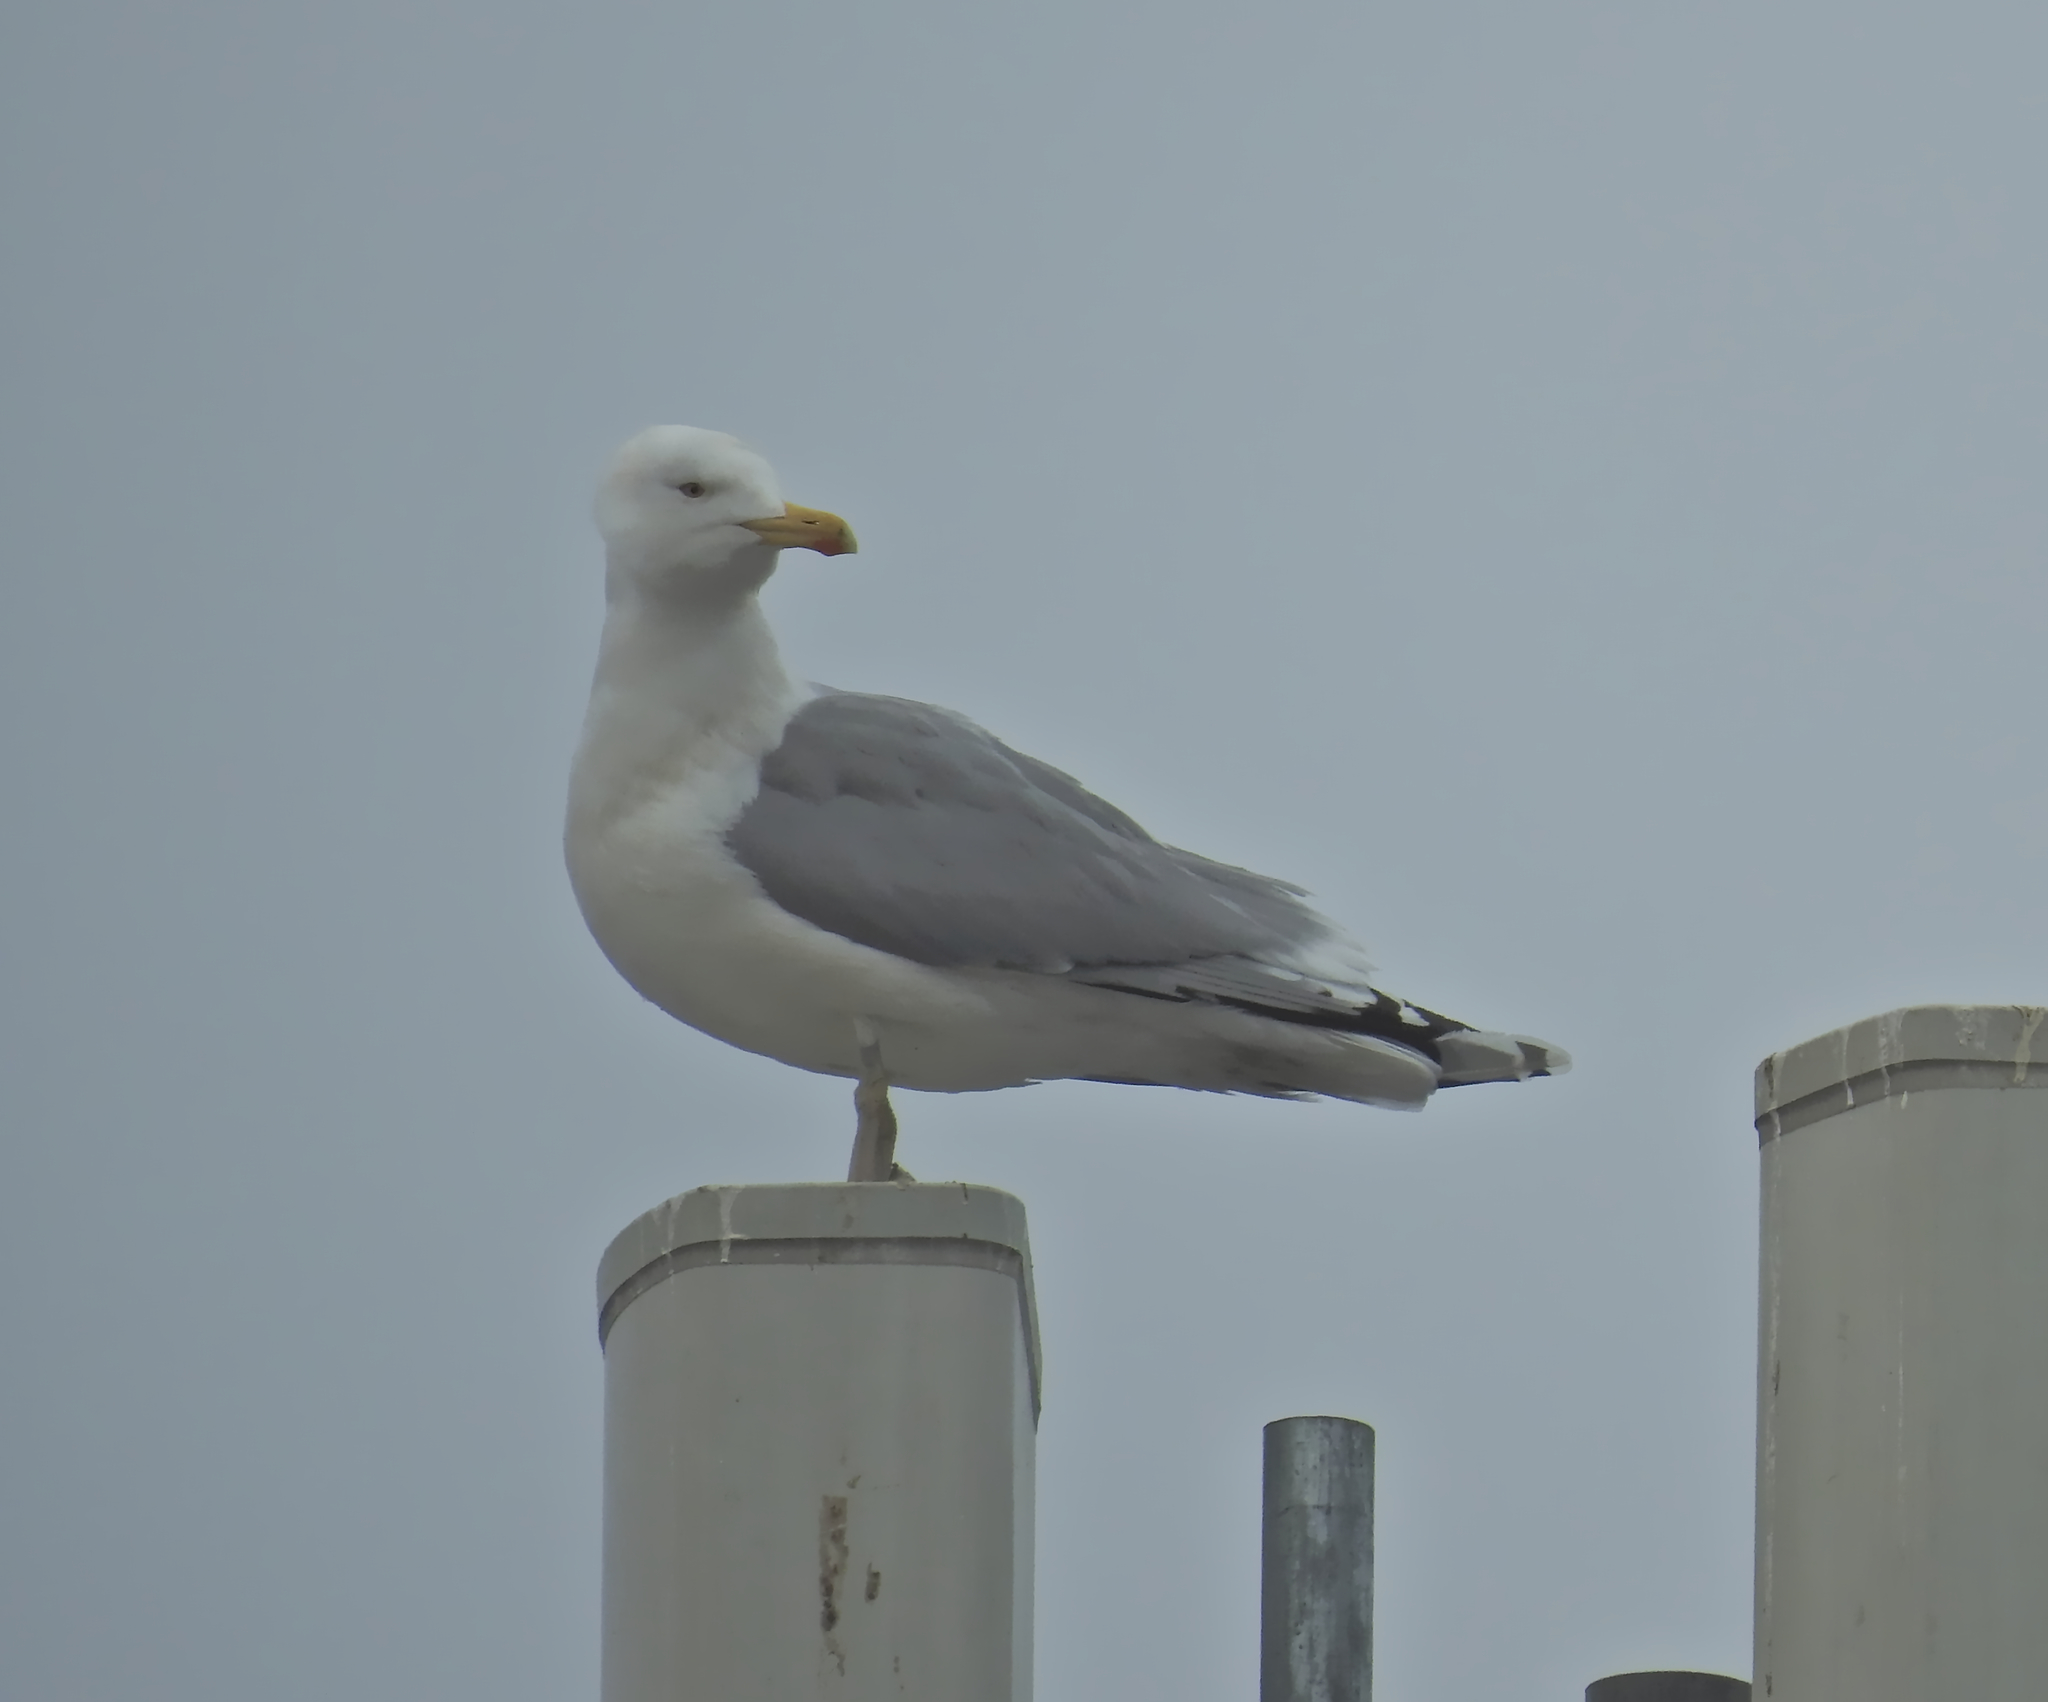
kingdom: Animalia
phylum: Chordata
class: Aves
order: Charadriiformes
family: Laridae
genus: Larus
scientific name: Larus argentatus
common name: Herring gull
